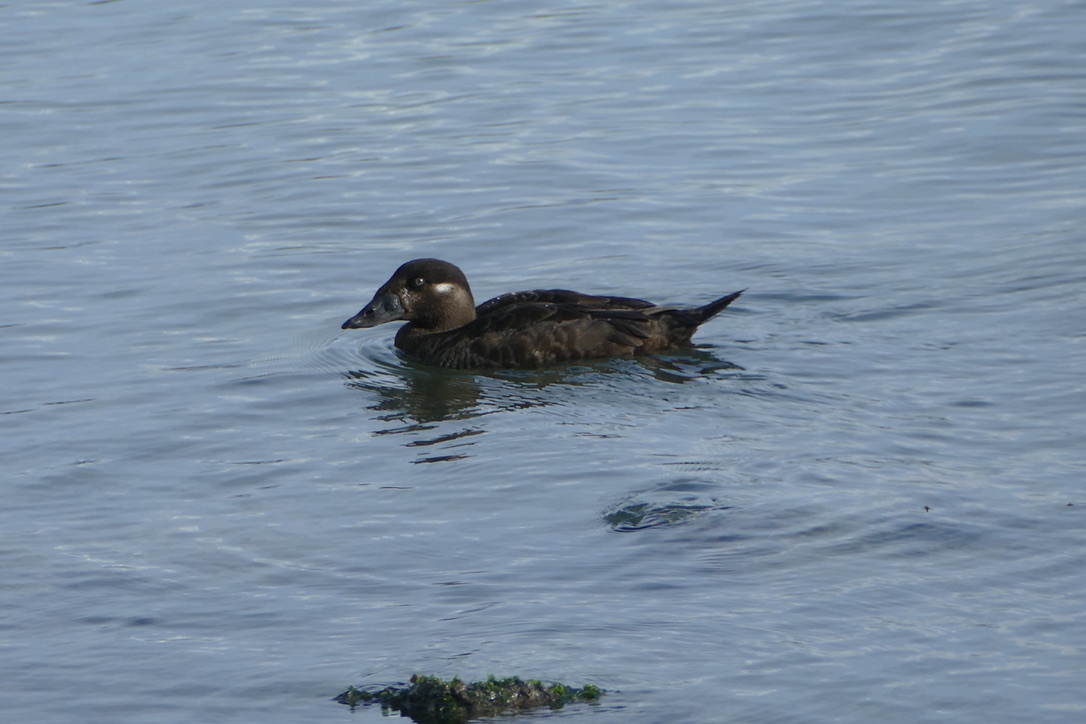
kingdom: Animalia
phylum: Chordata
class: Aves
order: Anseriformes
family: Anatidae
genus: Melanitta
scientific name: Melanitta perspicillata
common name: Surf scoter
